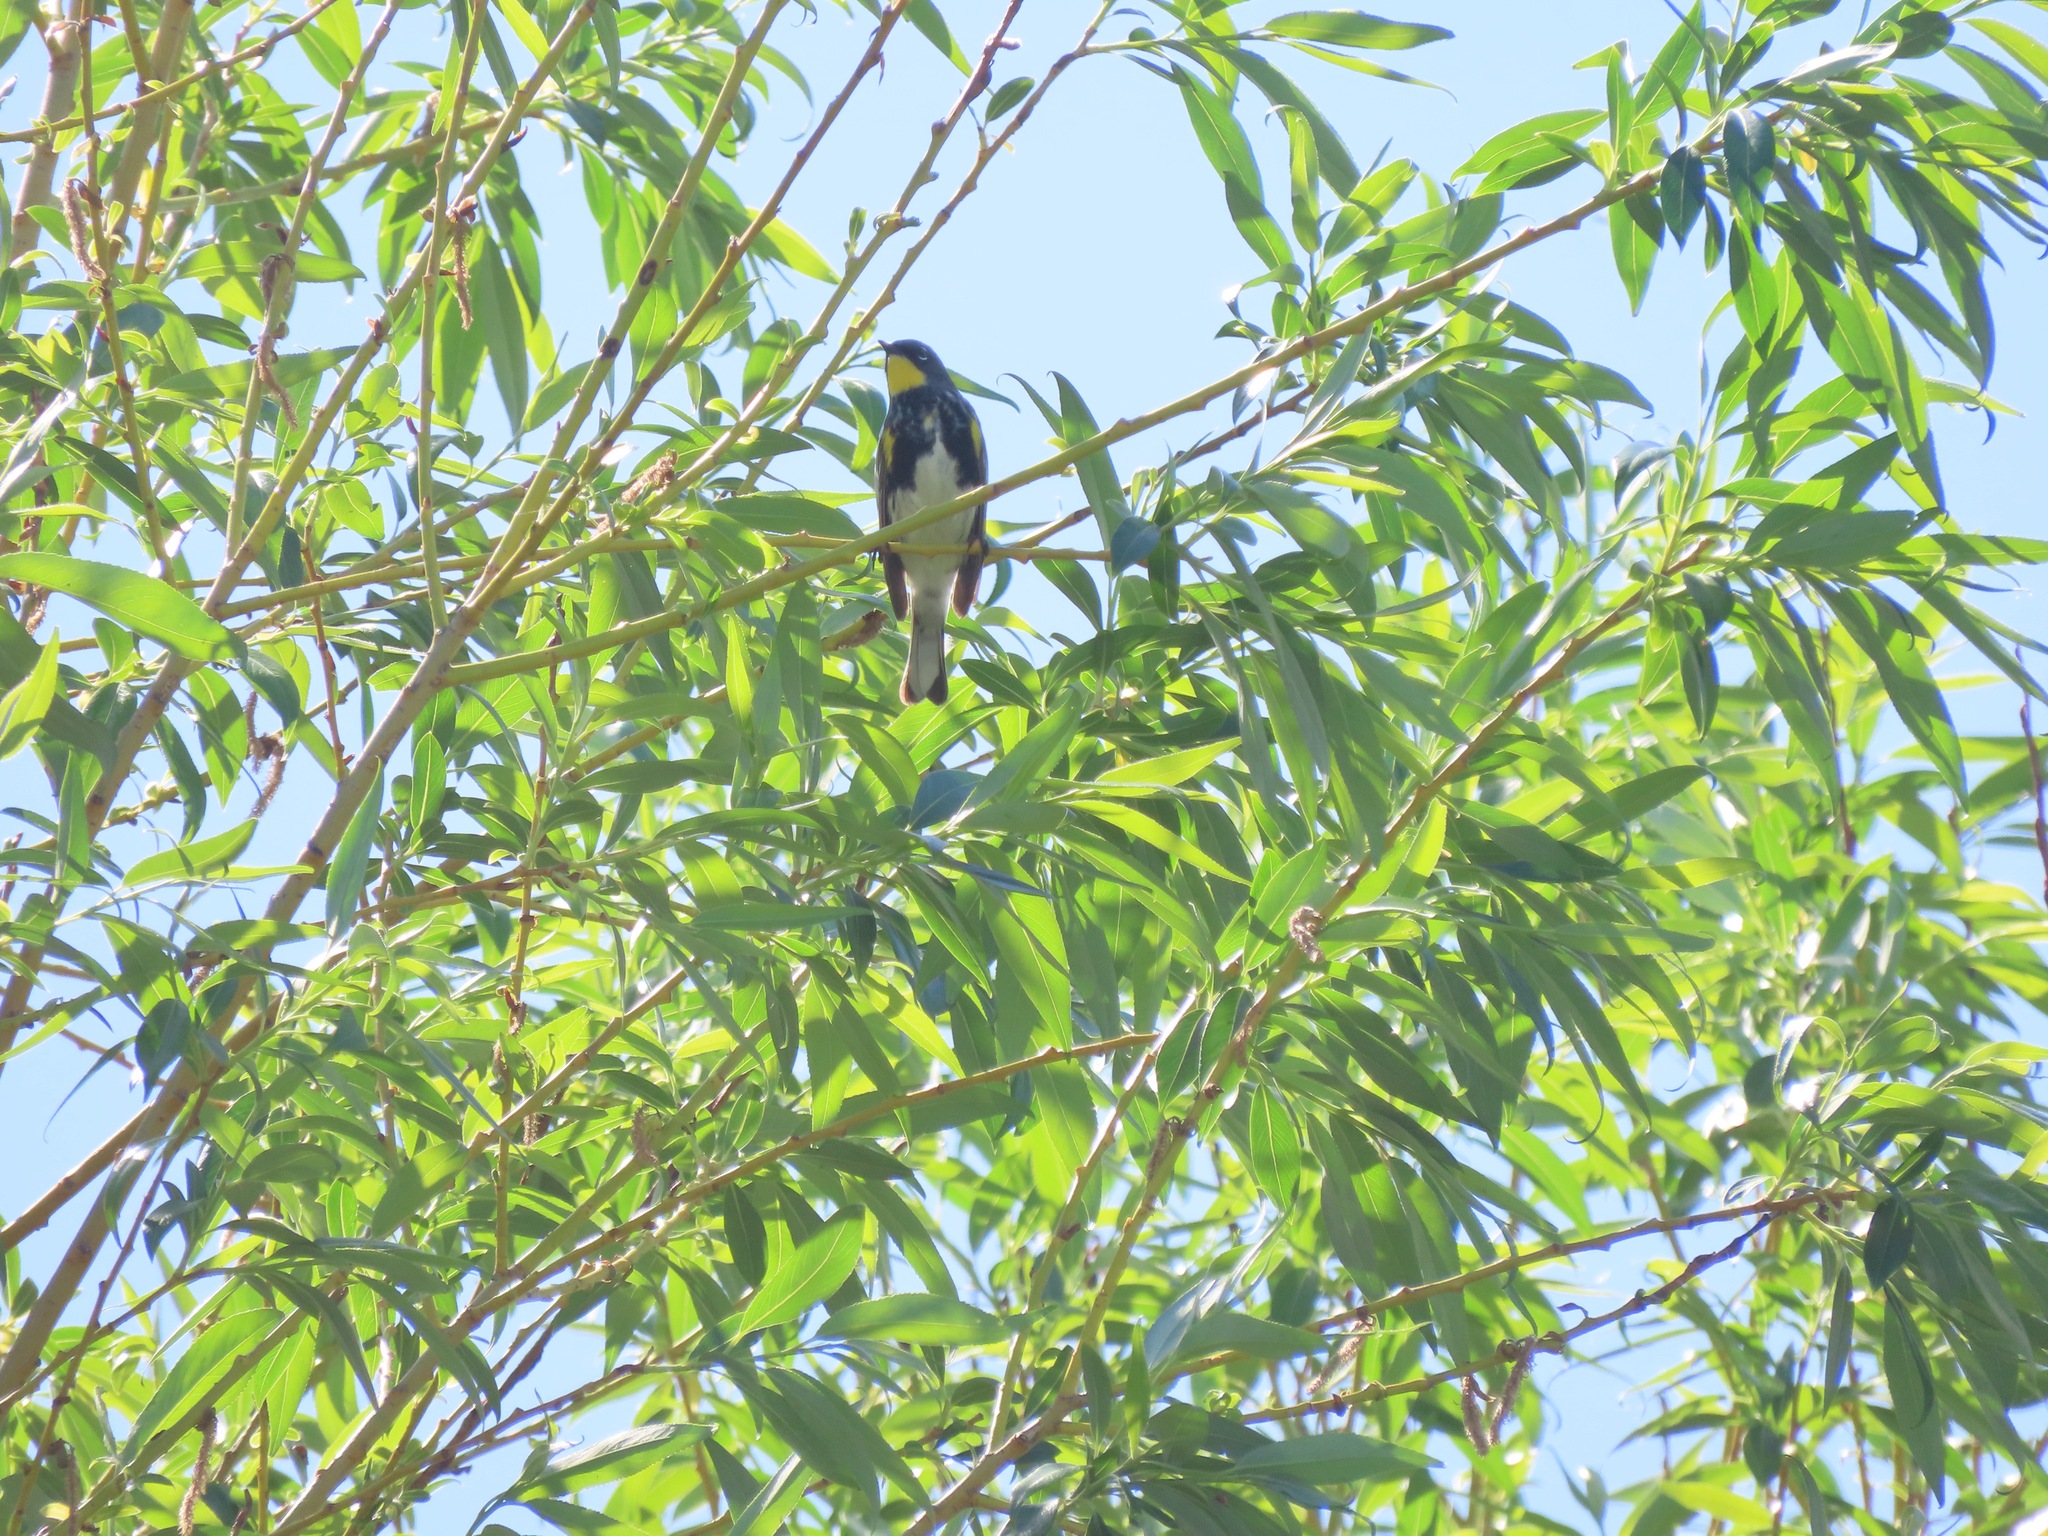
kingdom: Animalia
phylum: Chordata
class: Aves
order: Passeriformes
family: Parulidae
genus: Setophaga
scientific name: Setophaga coronata
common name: Myrtle warbler
